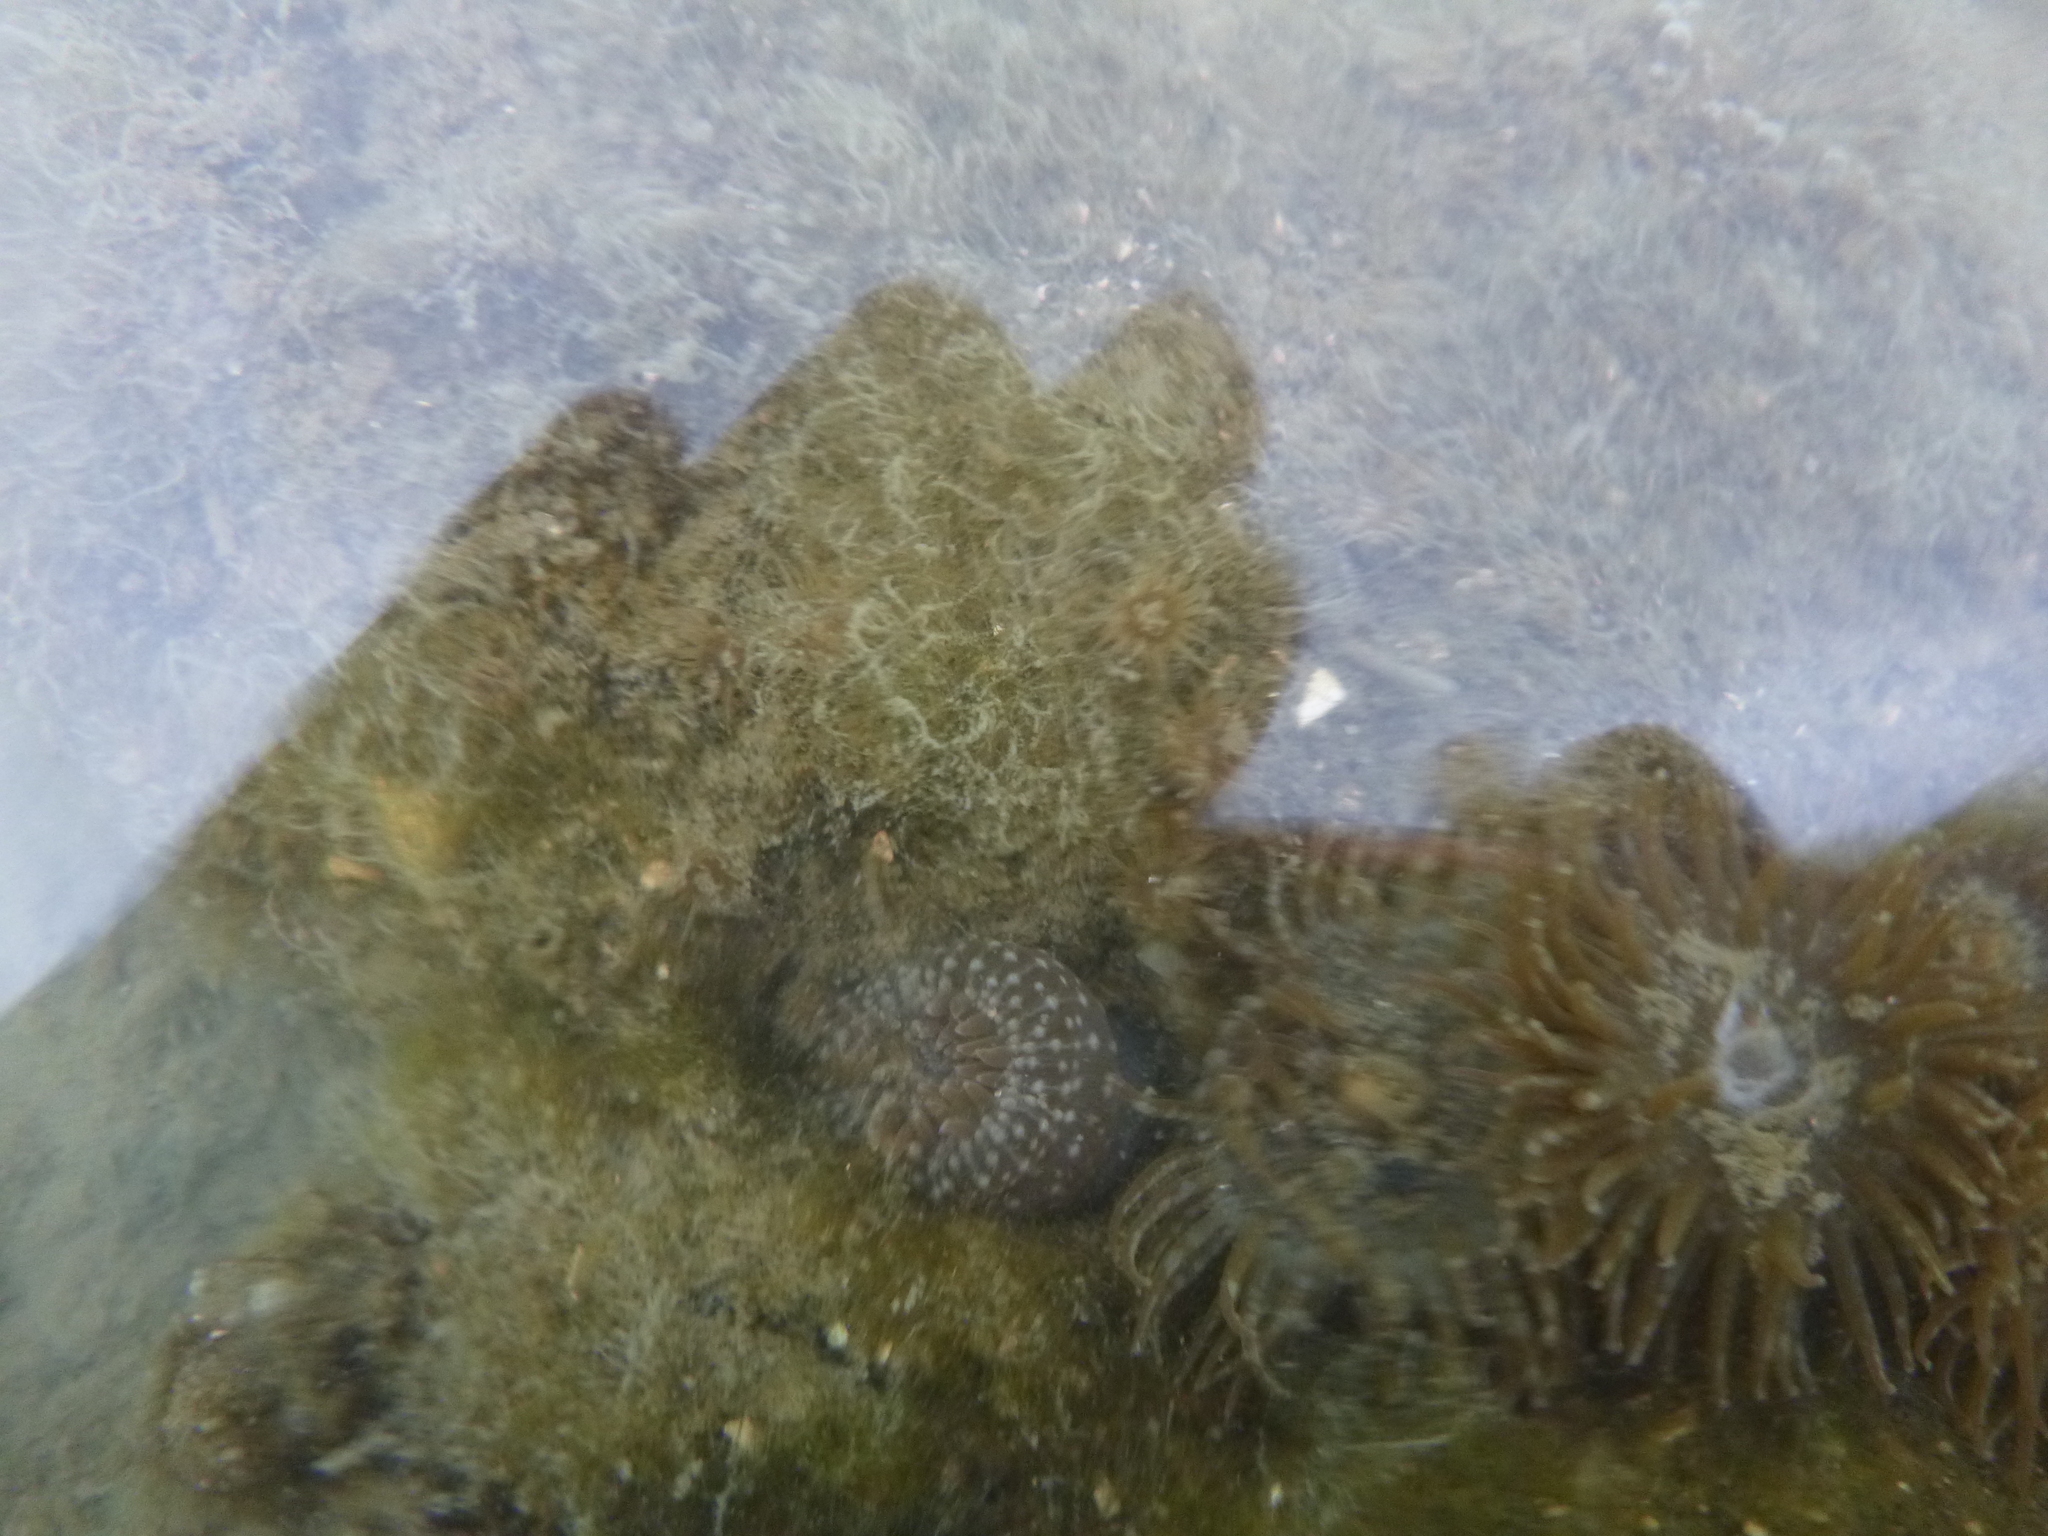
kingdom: Animalia
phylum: Cnidaria
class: Anthozoa
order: Actiniaria
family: Actiniidae
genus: Anthopleura
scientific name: Anthopleura hermaphroditica
